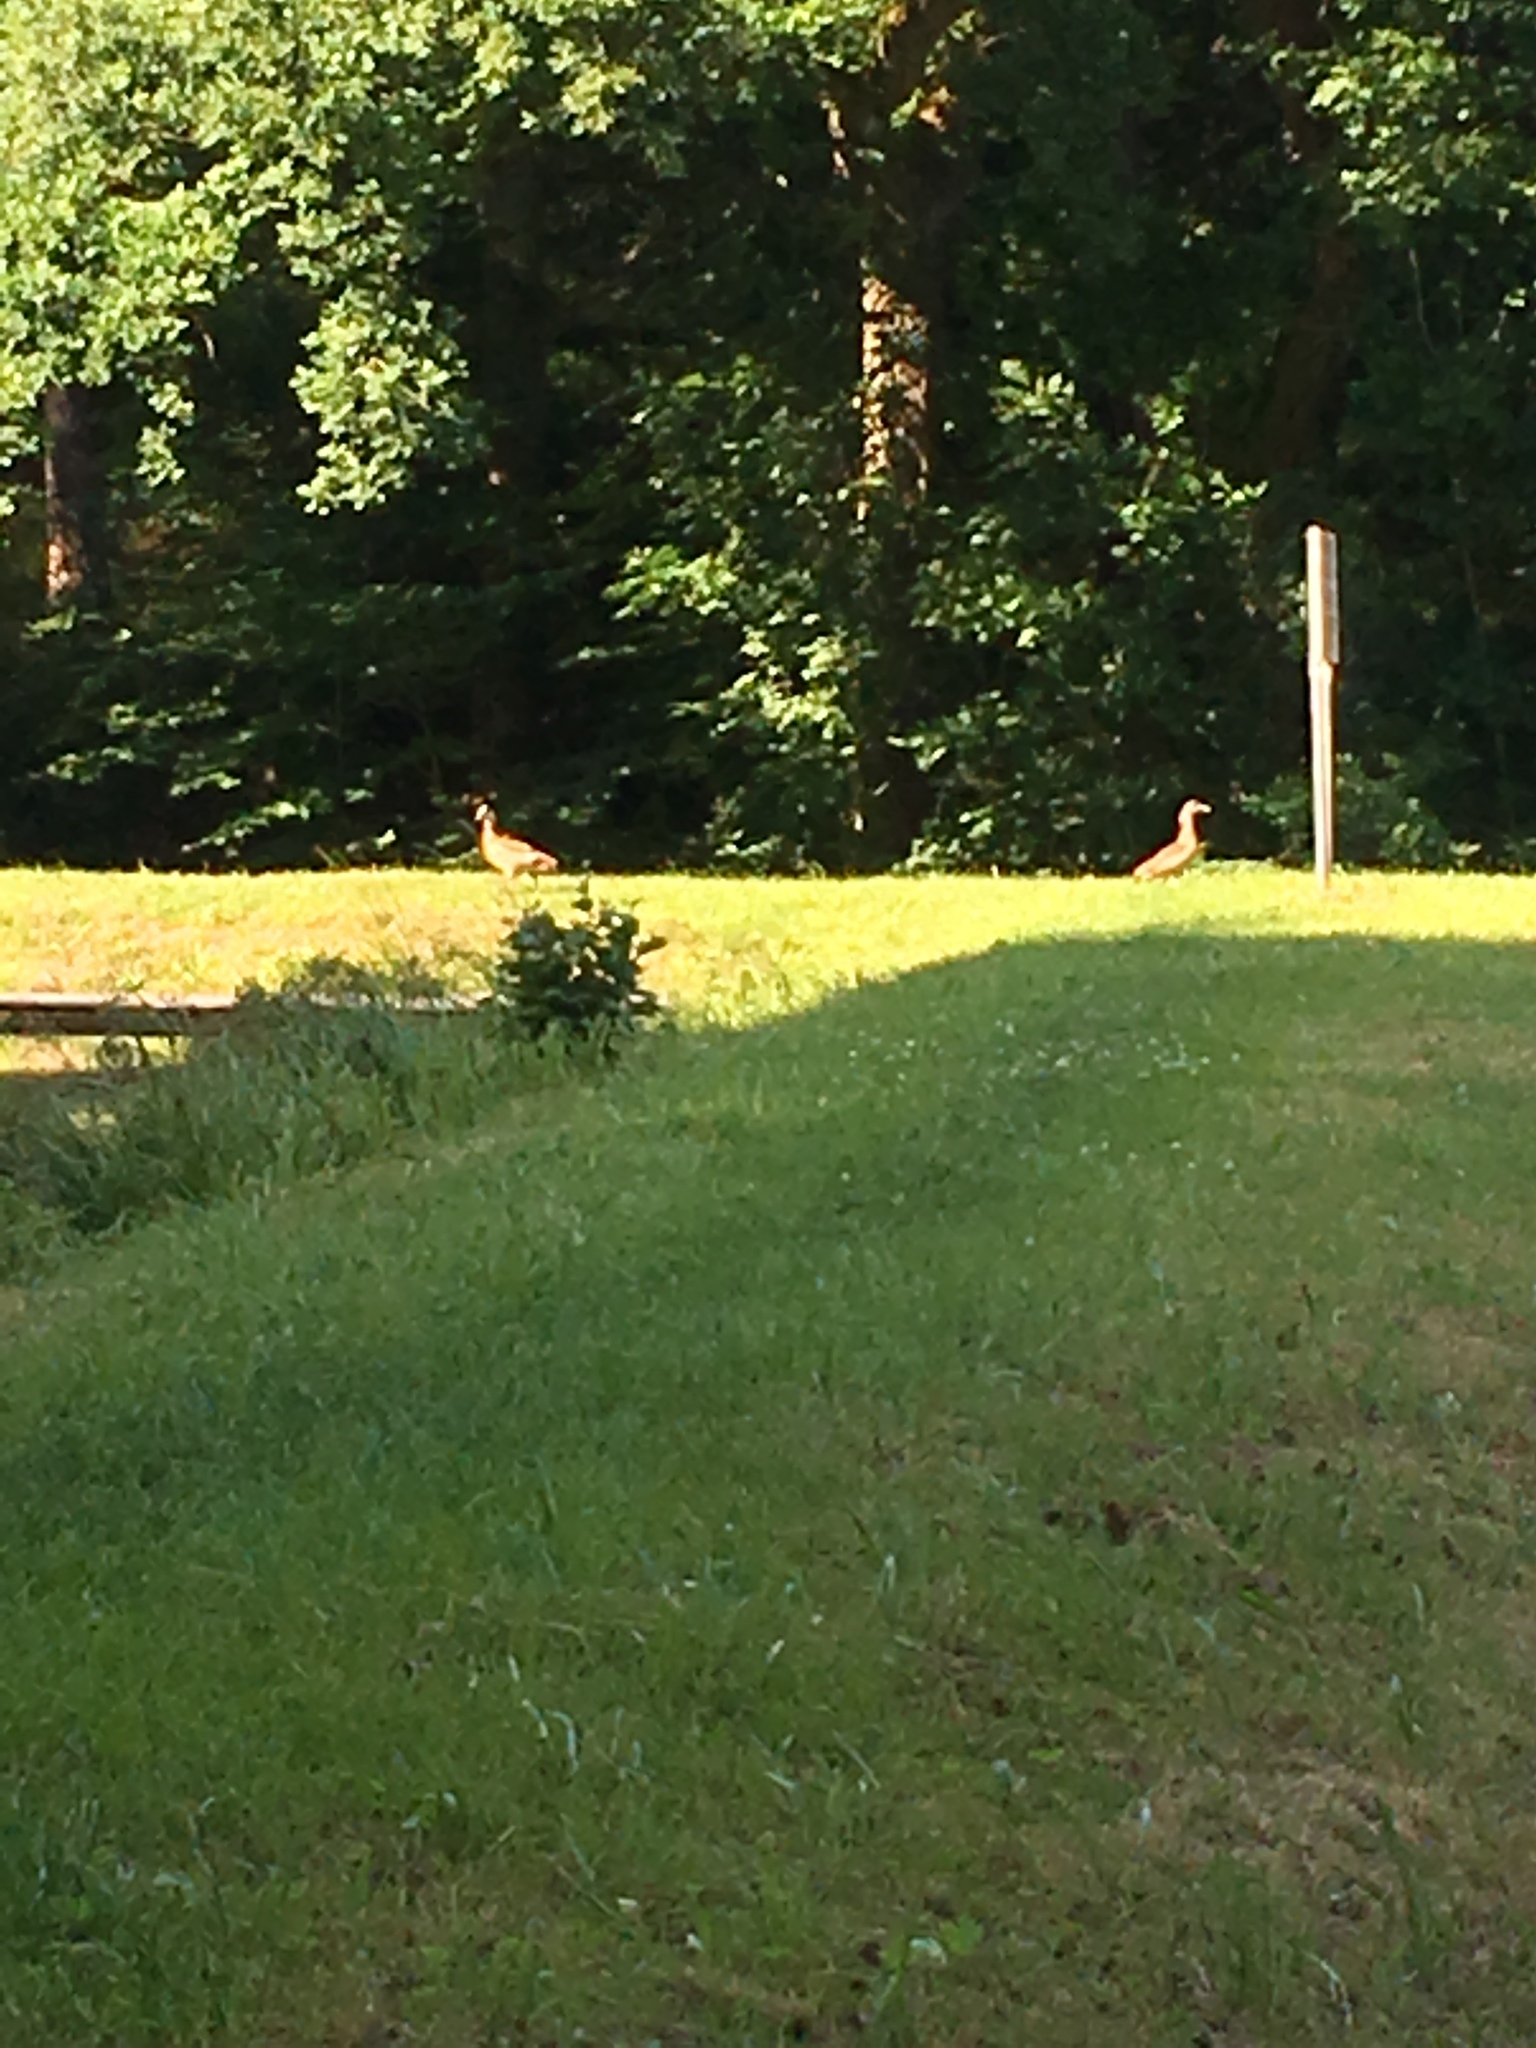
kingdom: Animalia
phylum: Chordata
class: Aves
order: Anseriformes
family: Anatidae
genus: Alopochen
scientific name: Alopochen aegyptiaca
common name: Egyptian goose
